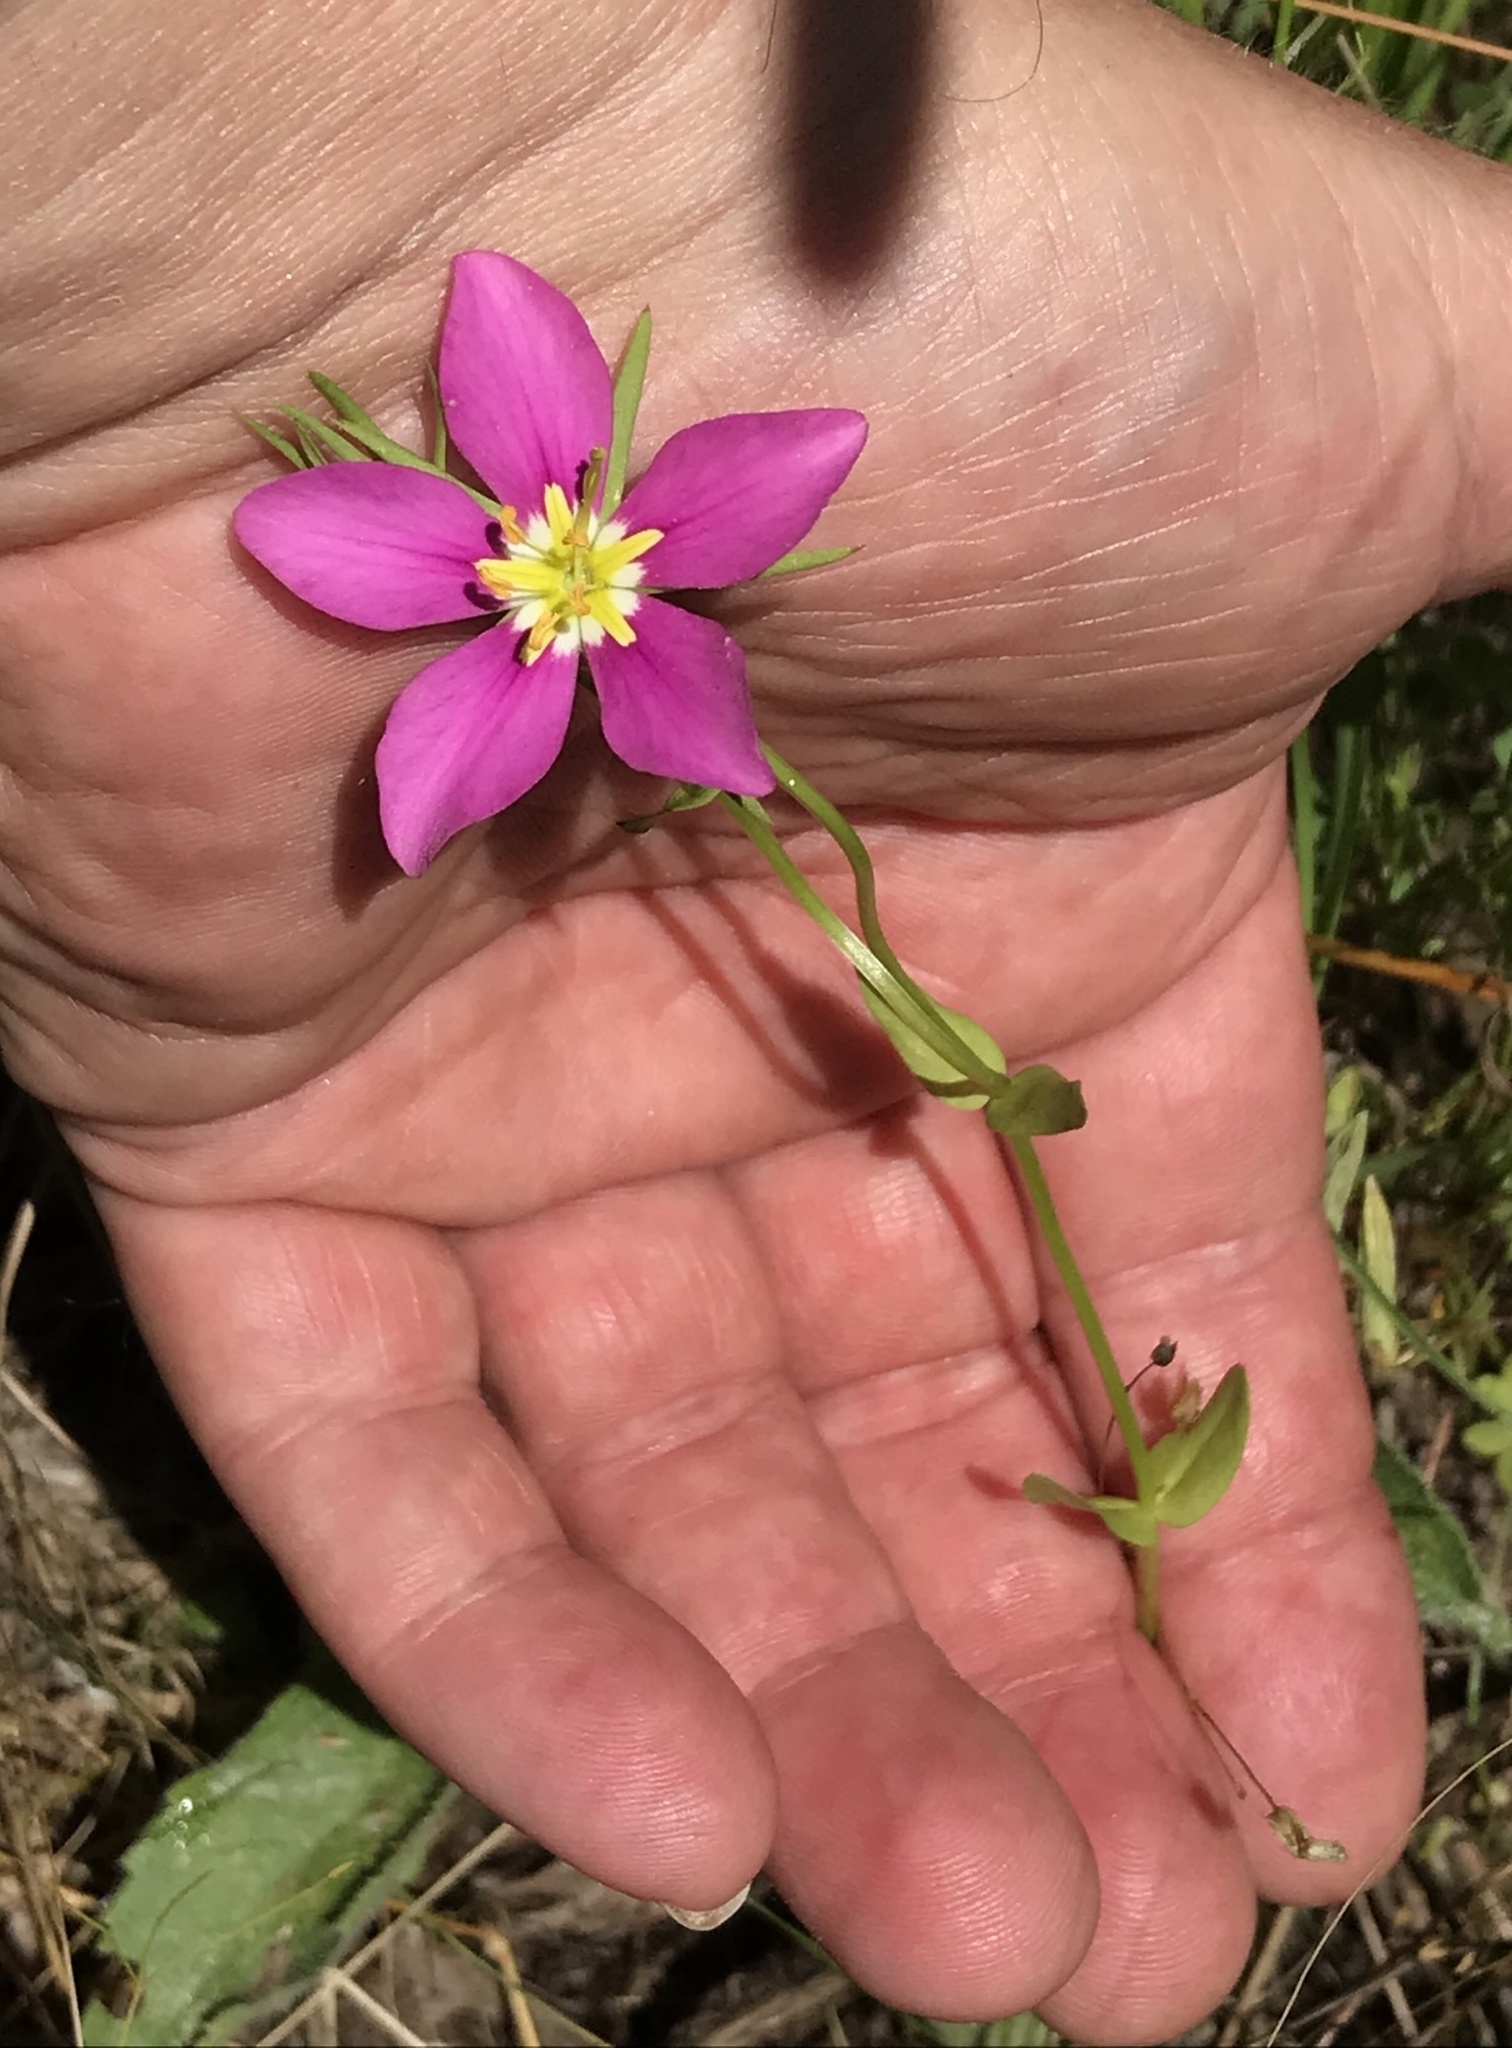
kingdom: Plantae
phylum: Tracheophyta
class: Magnoliopsida
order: Gentianales
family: Gentianaceae
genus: Sabatia
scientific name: Sabatia campestris
